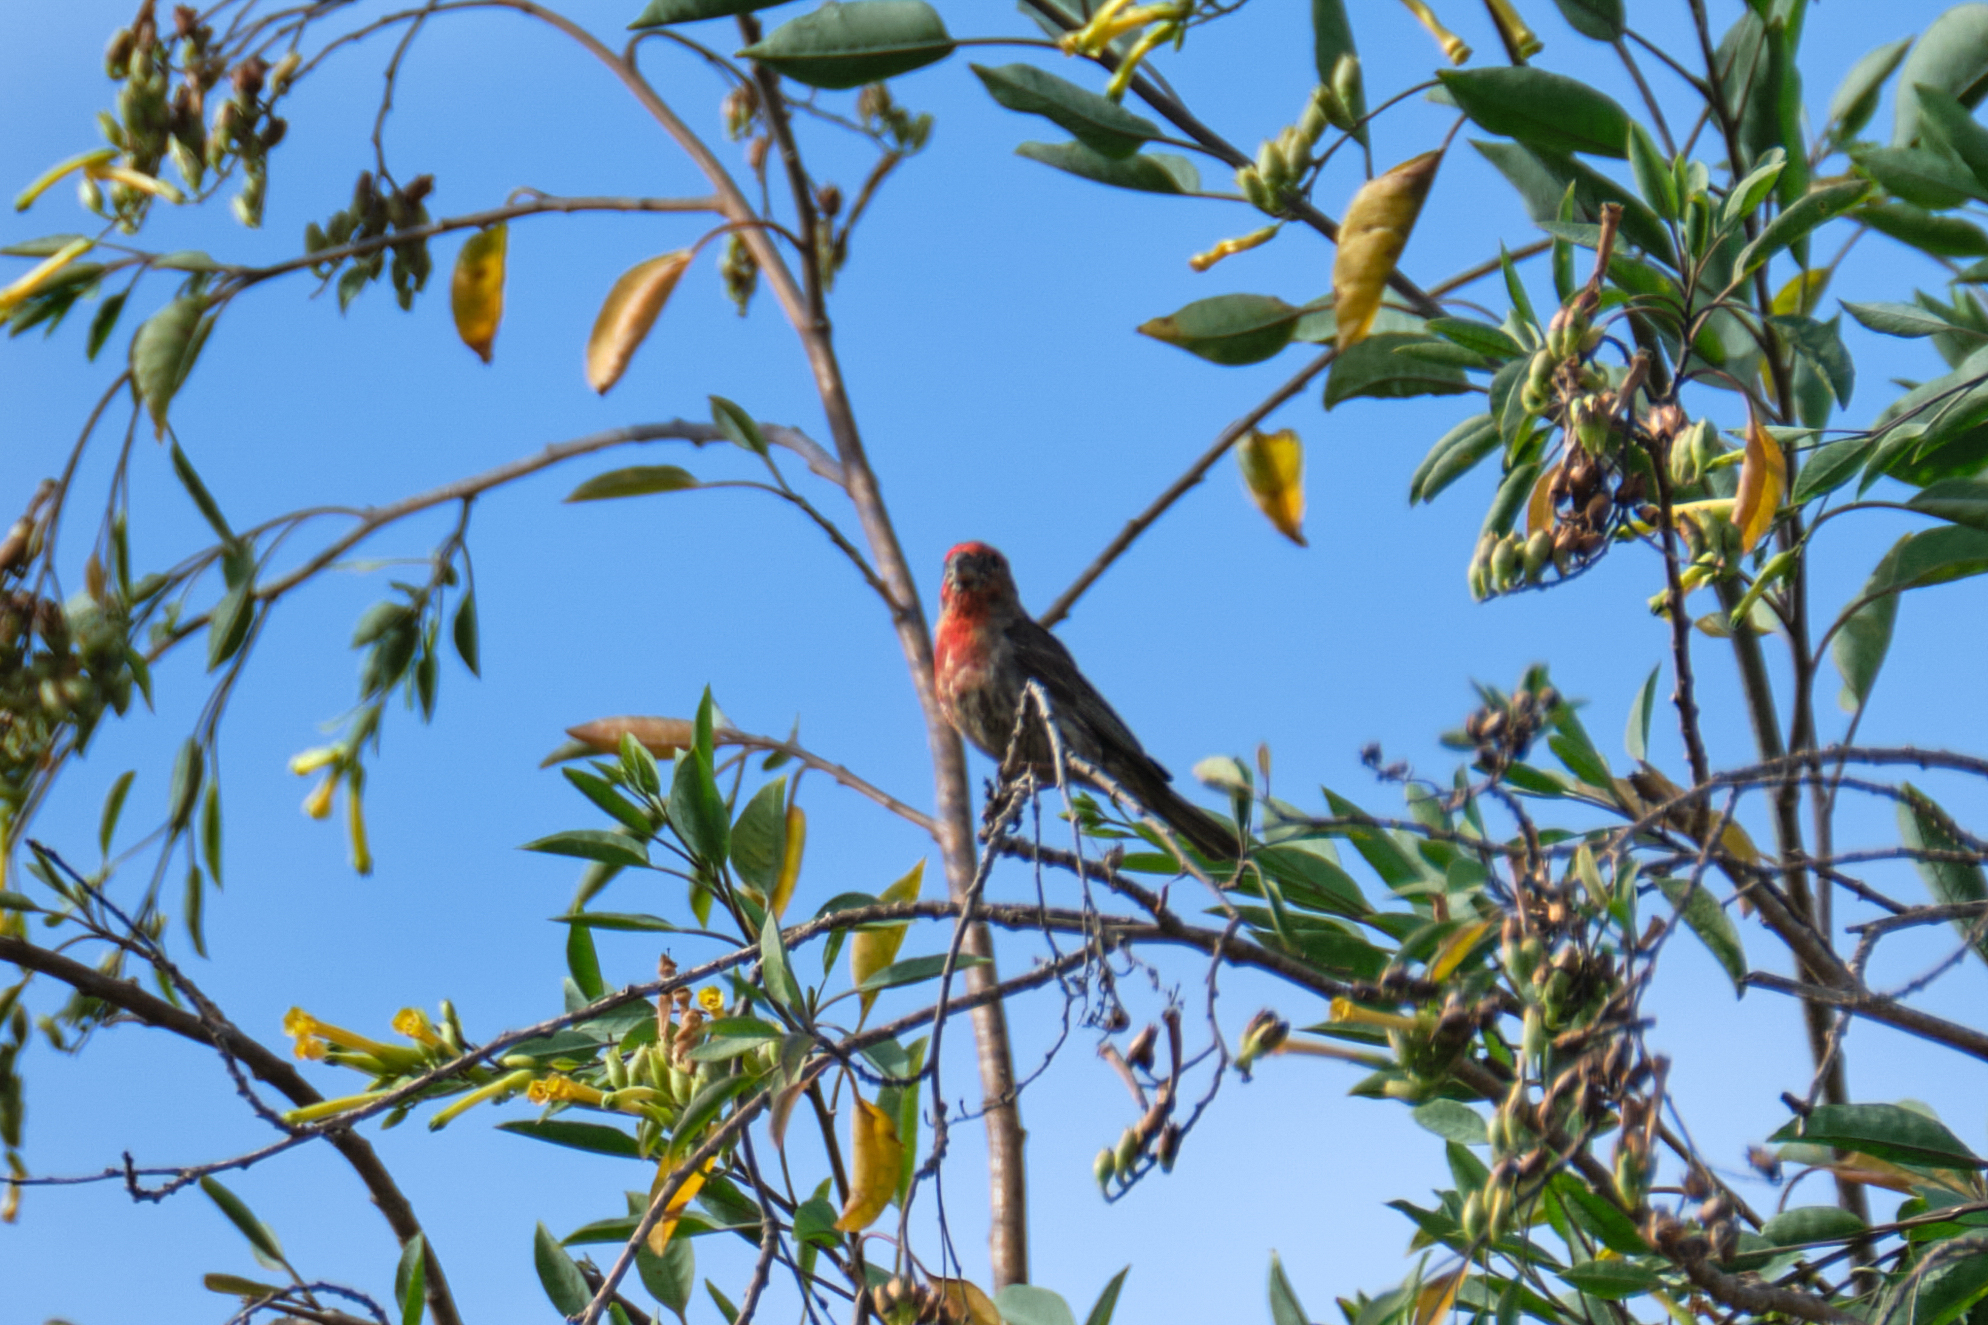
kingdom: Animalia
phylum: Chordata
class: Aves
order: Passeriformes
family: Fringillidae
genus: Haemorhous
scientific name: Haemorhous mexicanus
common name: House finch
